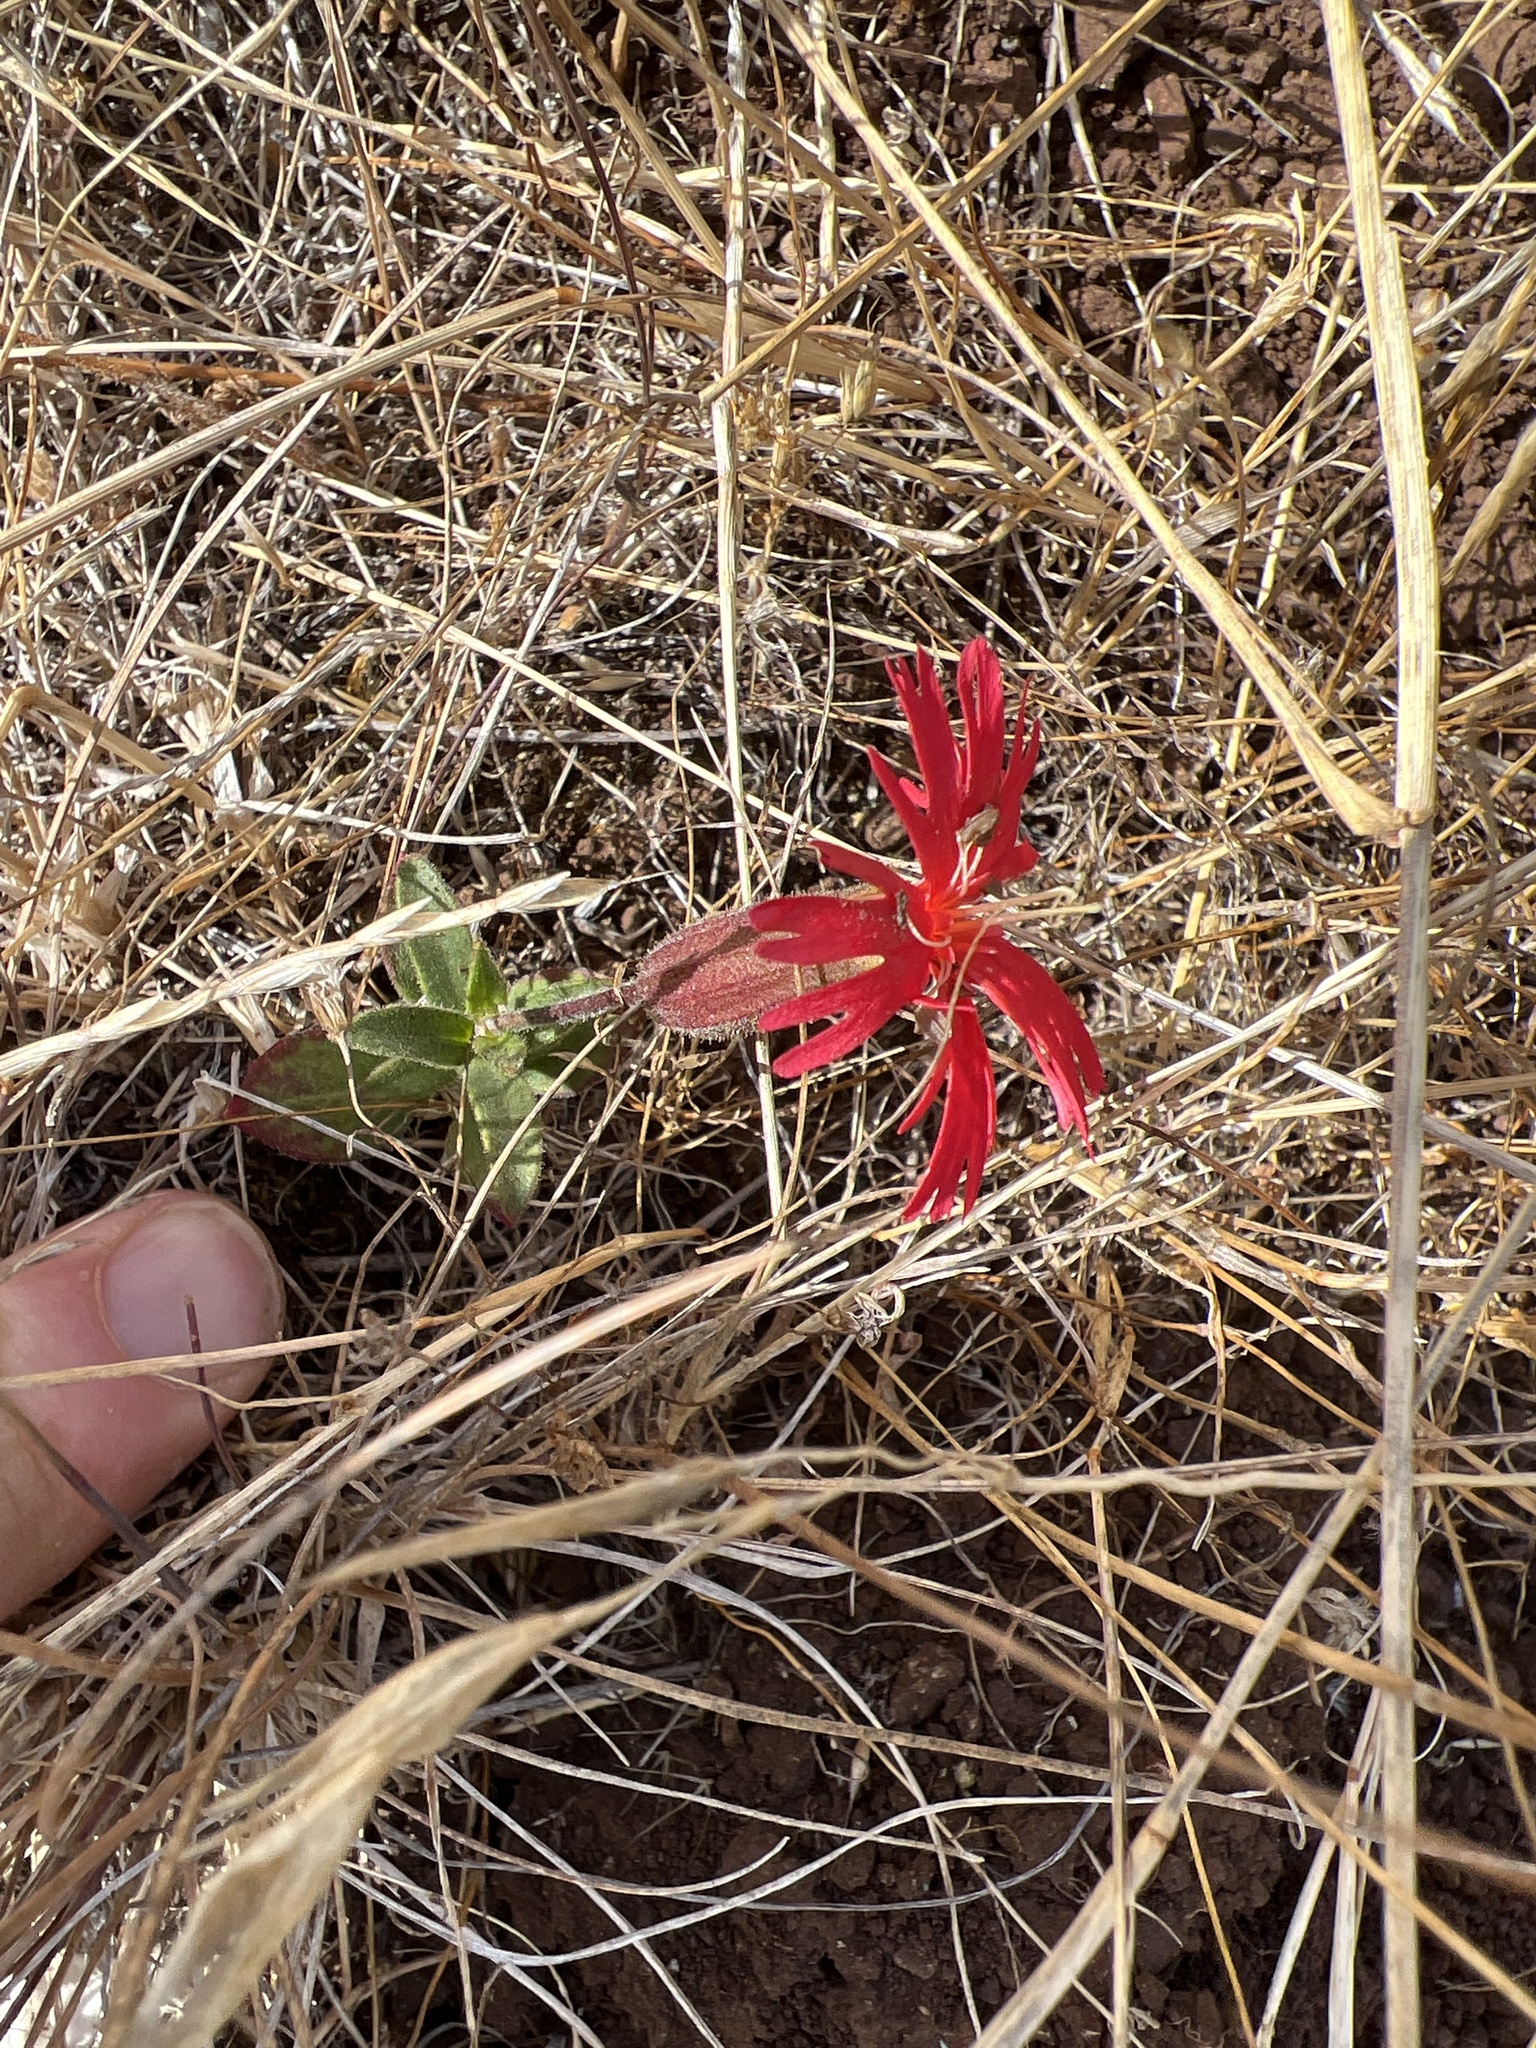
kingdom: Plantae
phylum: Tracheophyta
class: Magnoliopsida
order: Caryophyllales
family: Caryophyllaceae
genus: Silene
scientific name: Silene laciniata
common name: Indian-pink
